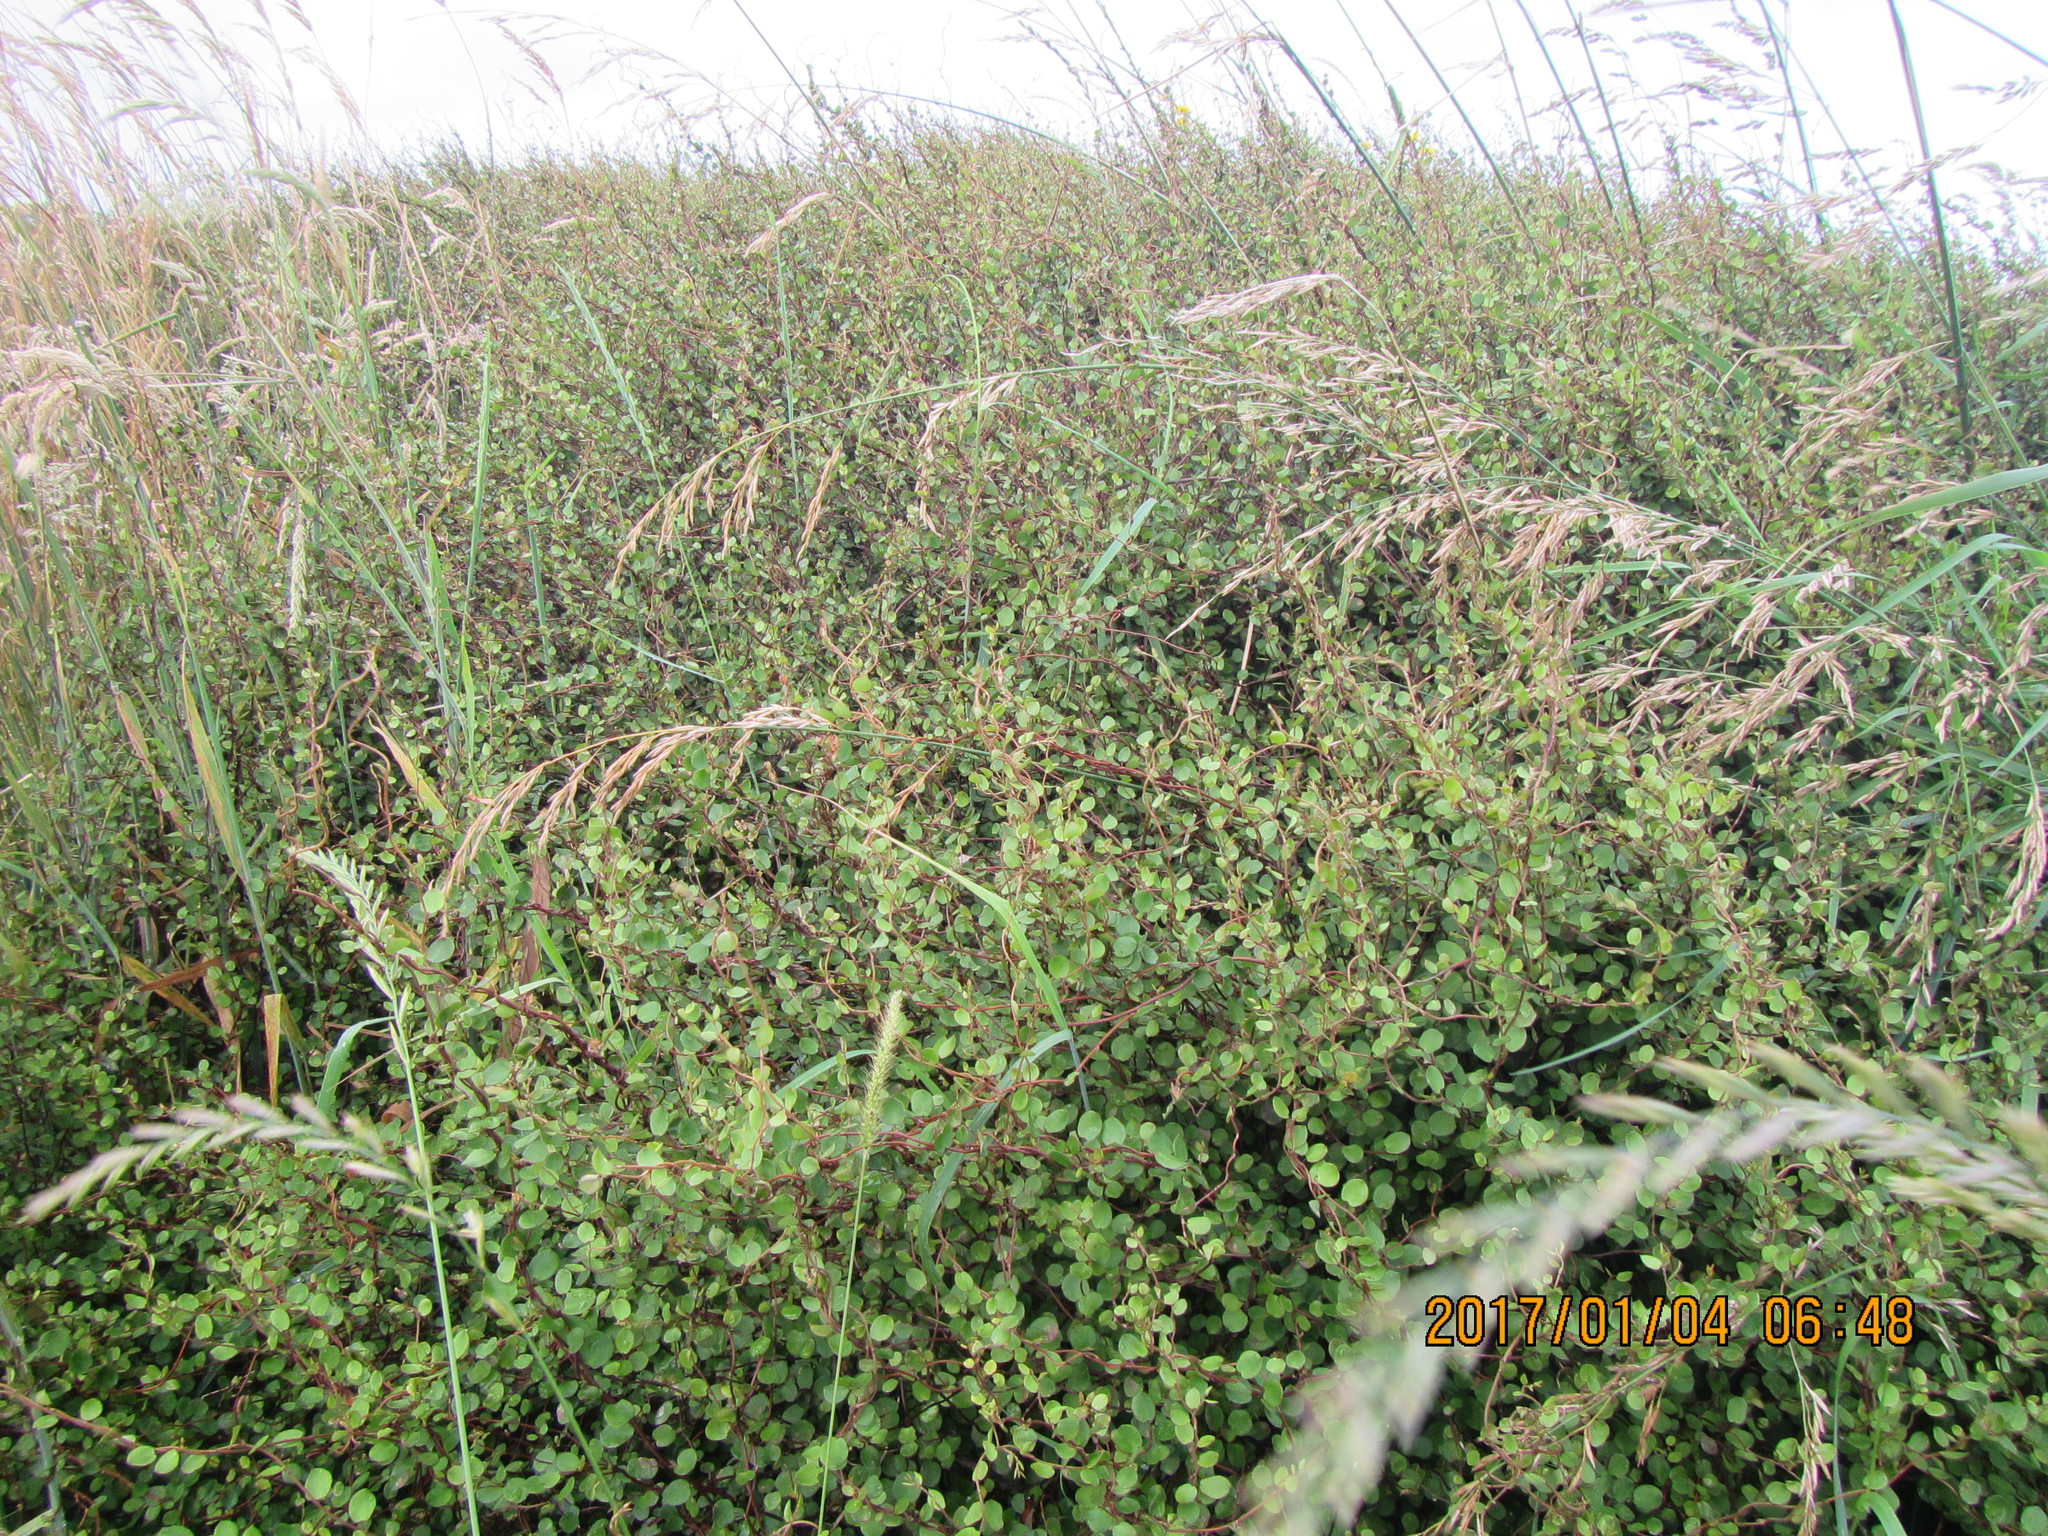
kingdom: Plantae
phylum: Tracheophyta
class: Magnoliopsida
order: Caryophyllales
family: Polygonaceae
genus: Muehlenbeckia
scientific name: Muehlenbeckia complexa
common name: Wireplant
